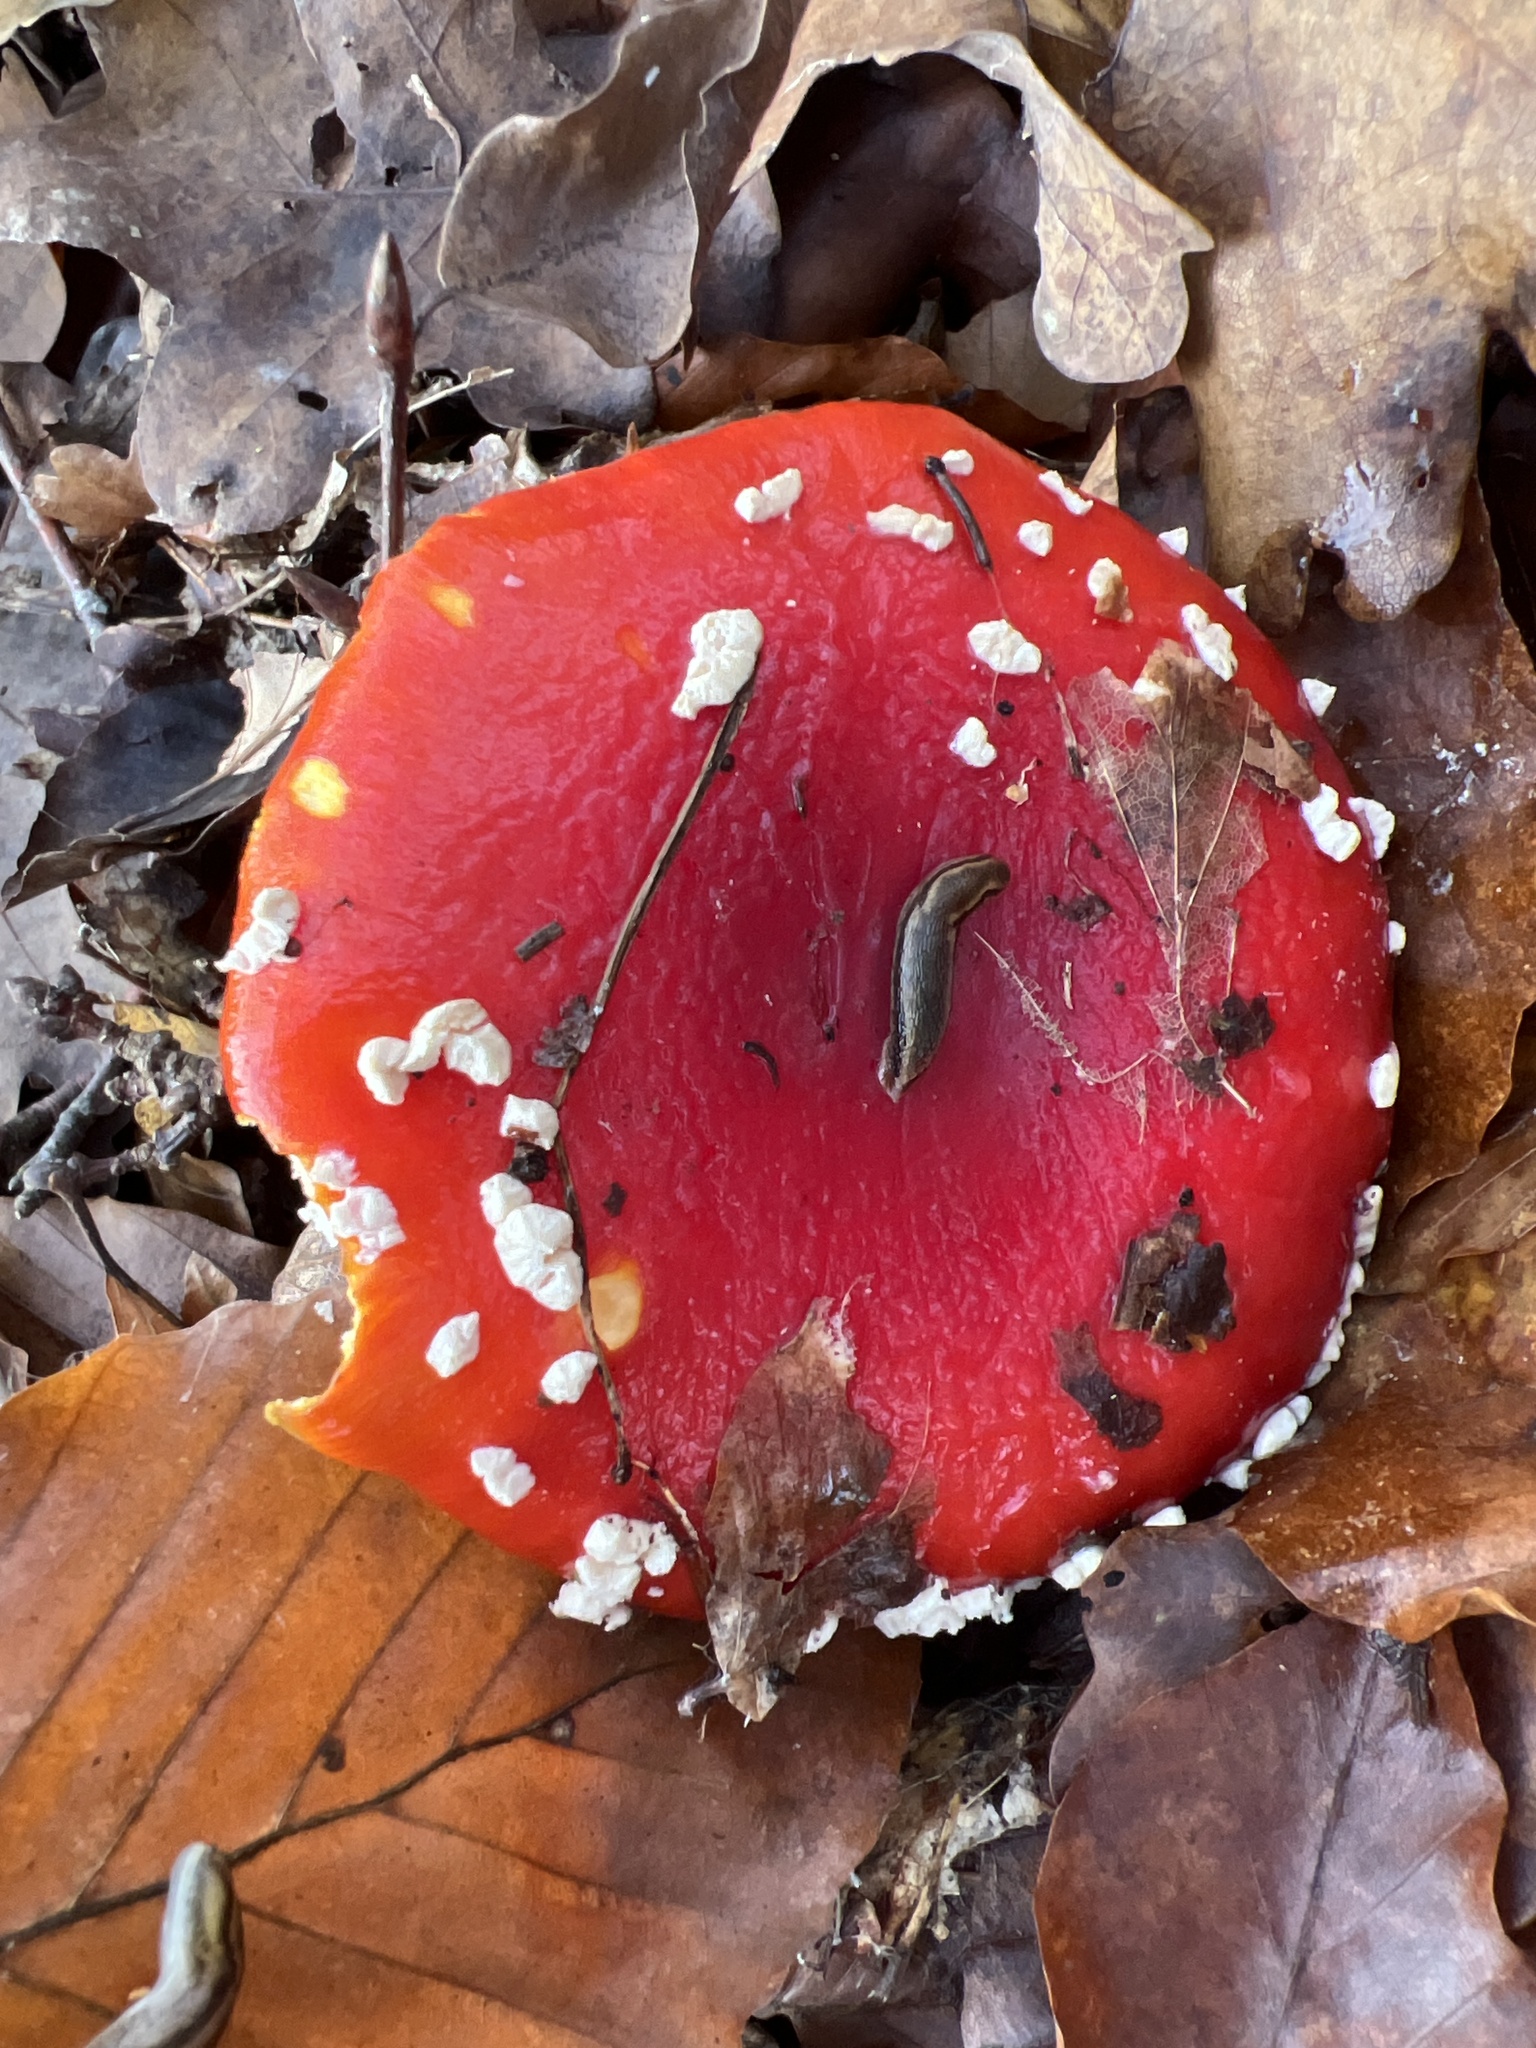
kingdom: Fungi
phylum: Basidiomycota
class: Agaricomycetes
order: Agaricales
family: Amanitaceae
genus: Amanita
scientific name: Amanita muscaria
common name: Fly agaric
